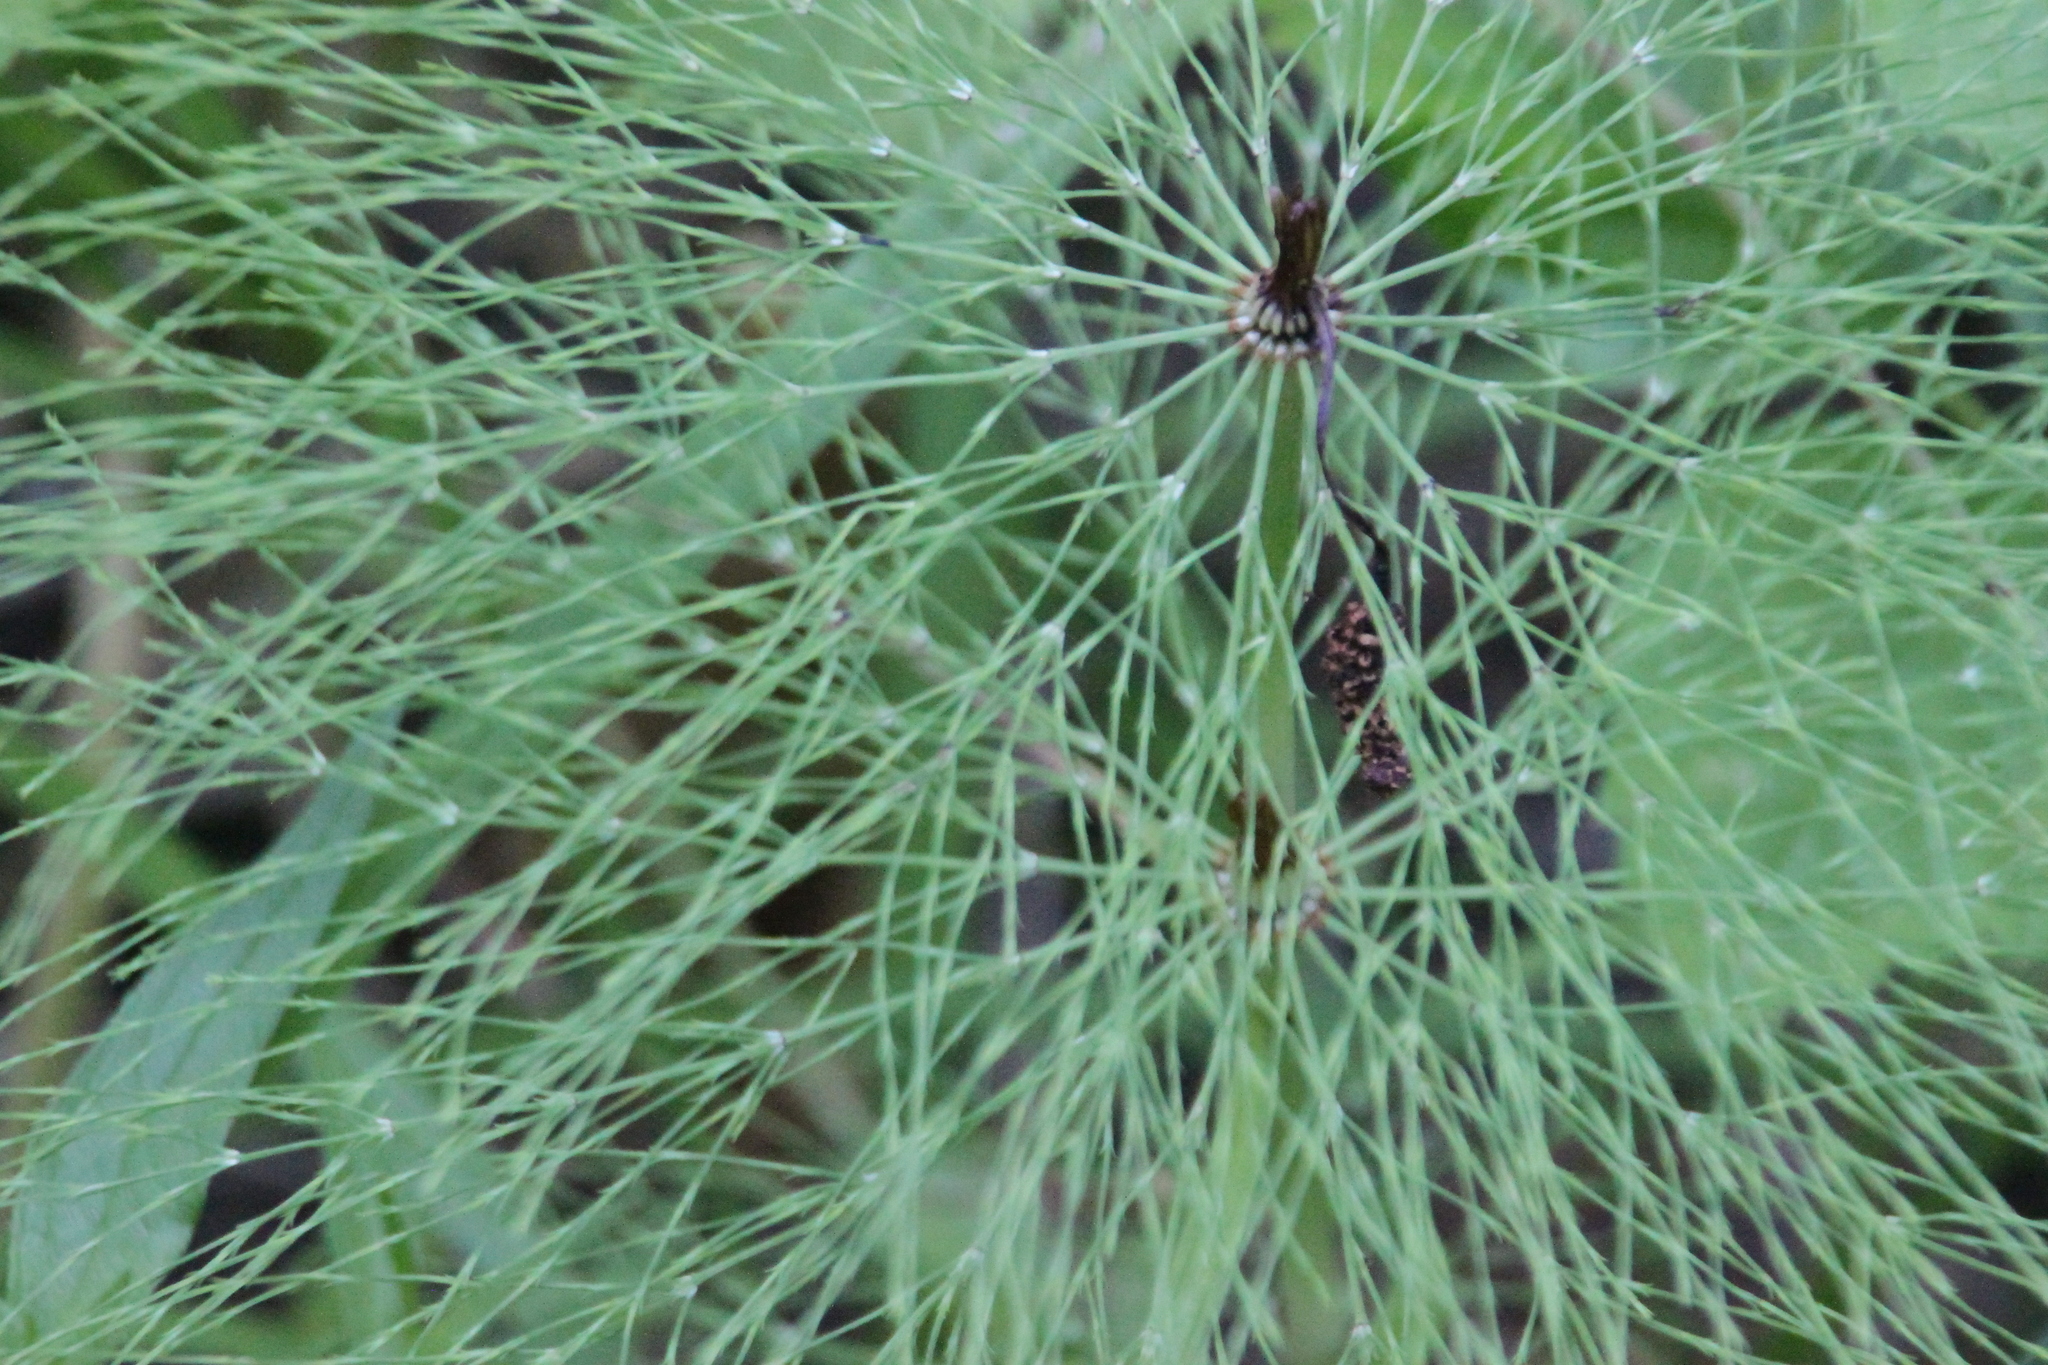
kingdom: Plantae
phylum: Tracheophyta
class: Polypodiopsida
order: Equisetales
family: Equisetaceae
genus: Equisetum
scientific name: Equisetum sylvaticum
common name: Wood horsetail
